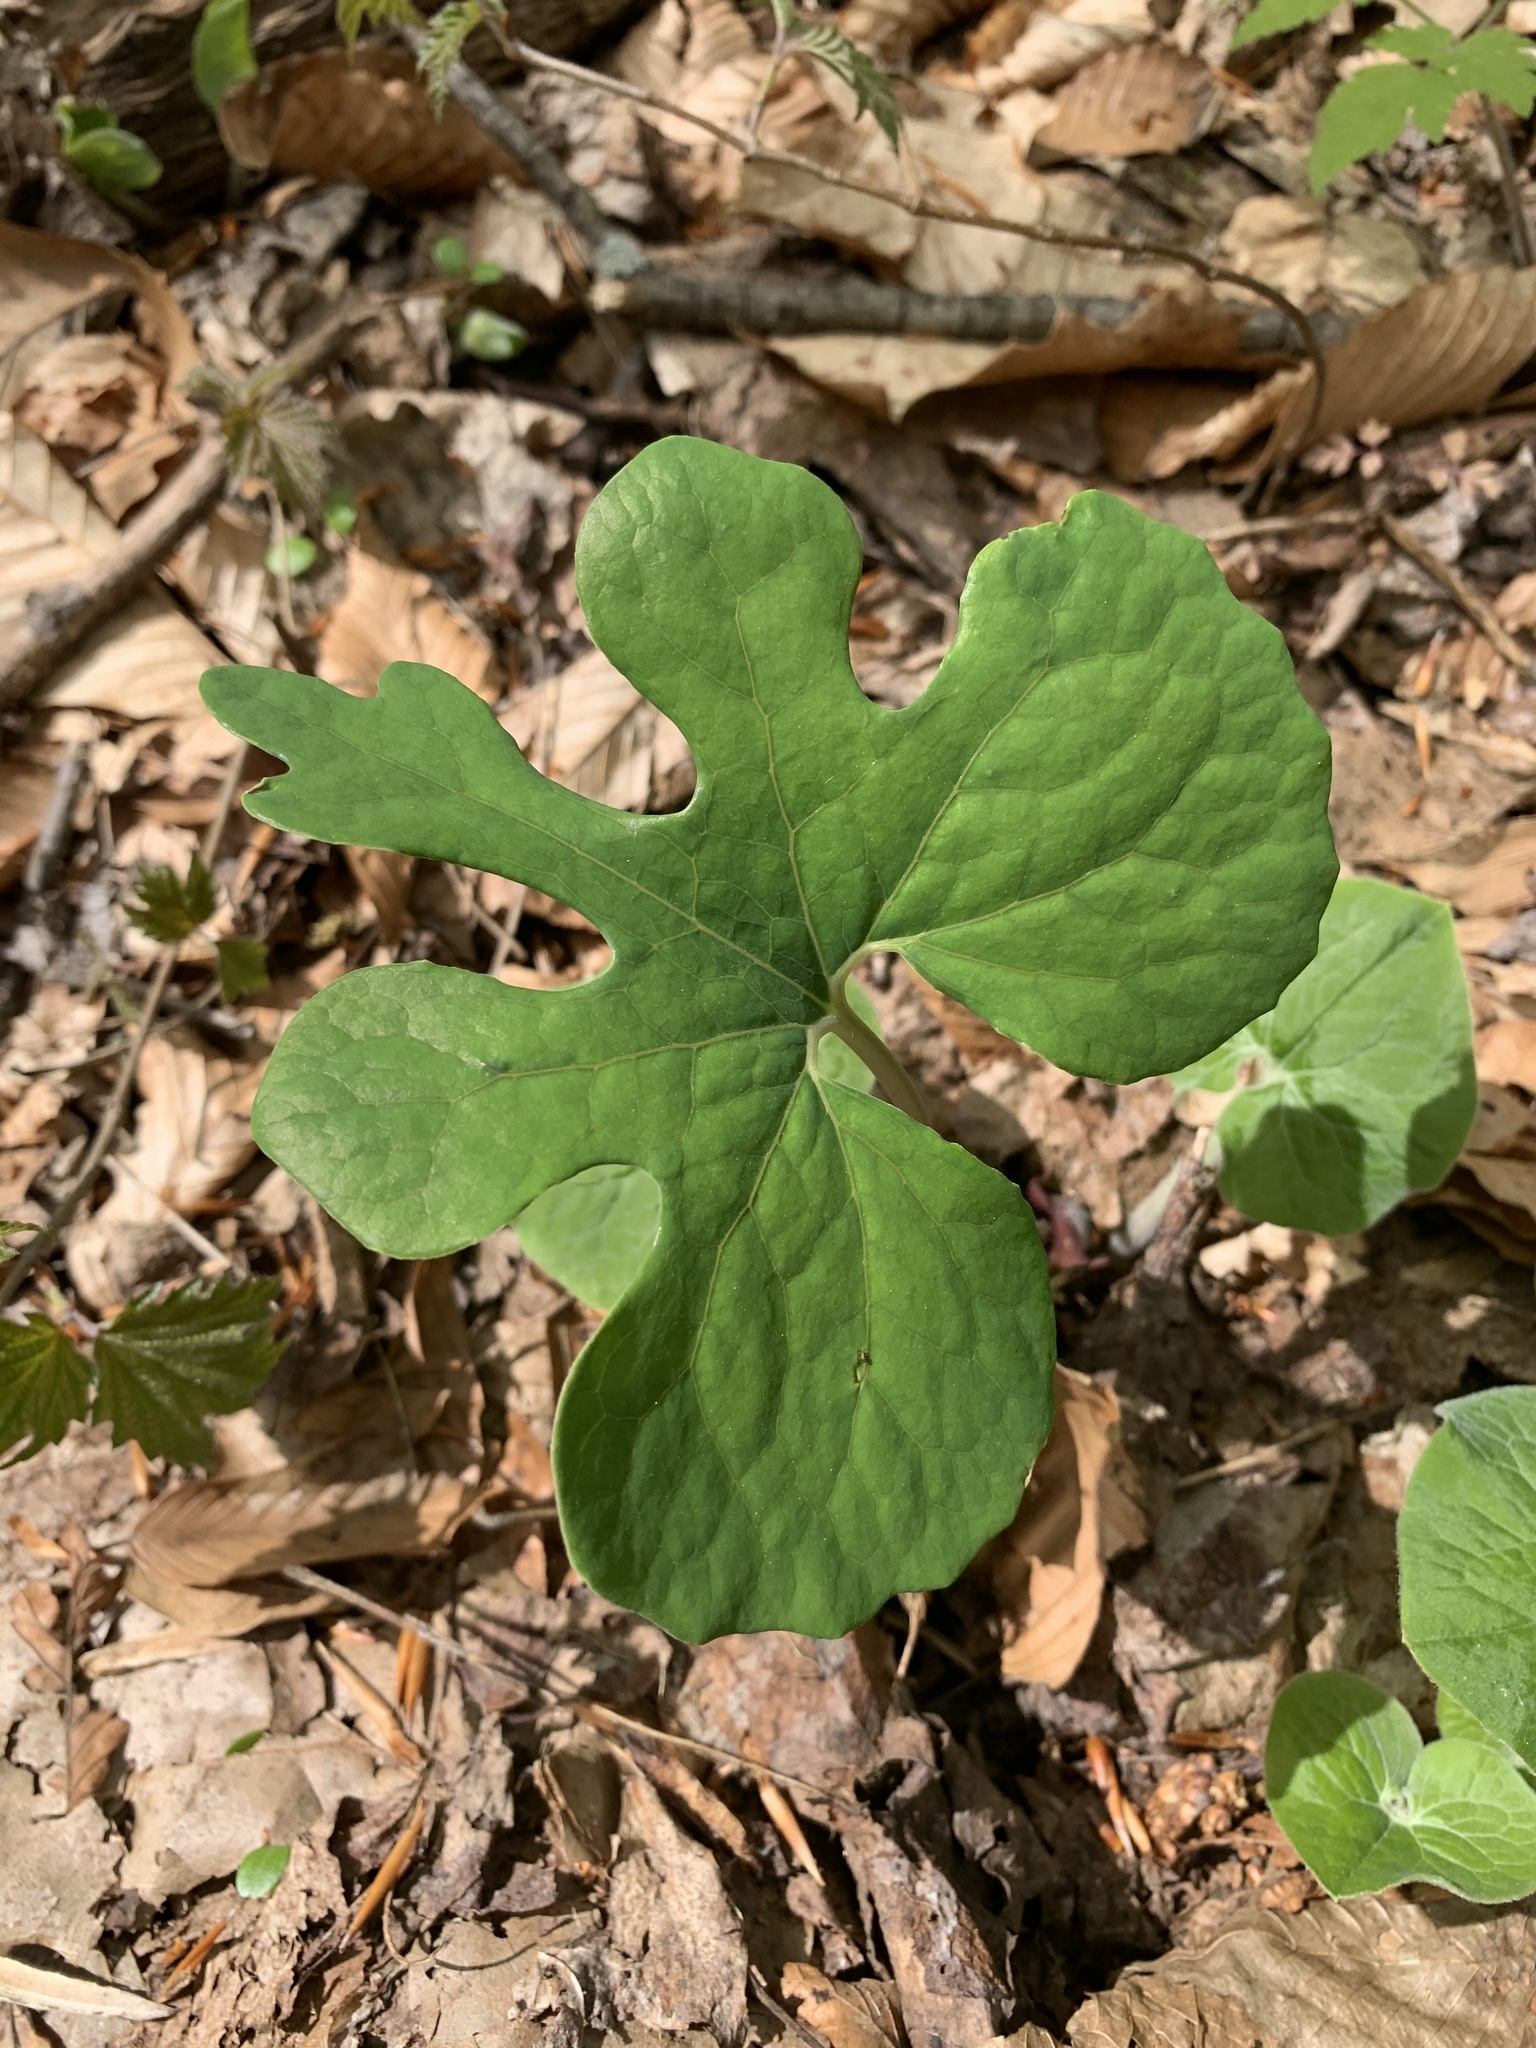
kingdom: Plantae
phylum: Tracheophyta
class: Magnoliopsida
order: Ranunculales
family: Papaveraceae
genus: Sanguinaria
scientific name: Sanguinaria canadensis
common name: Bloodroot
